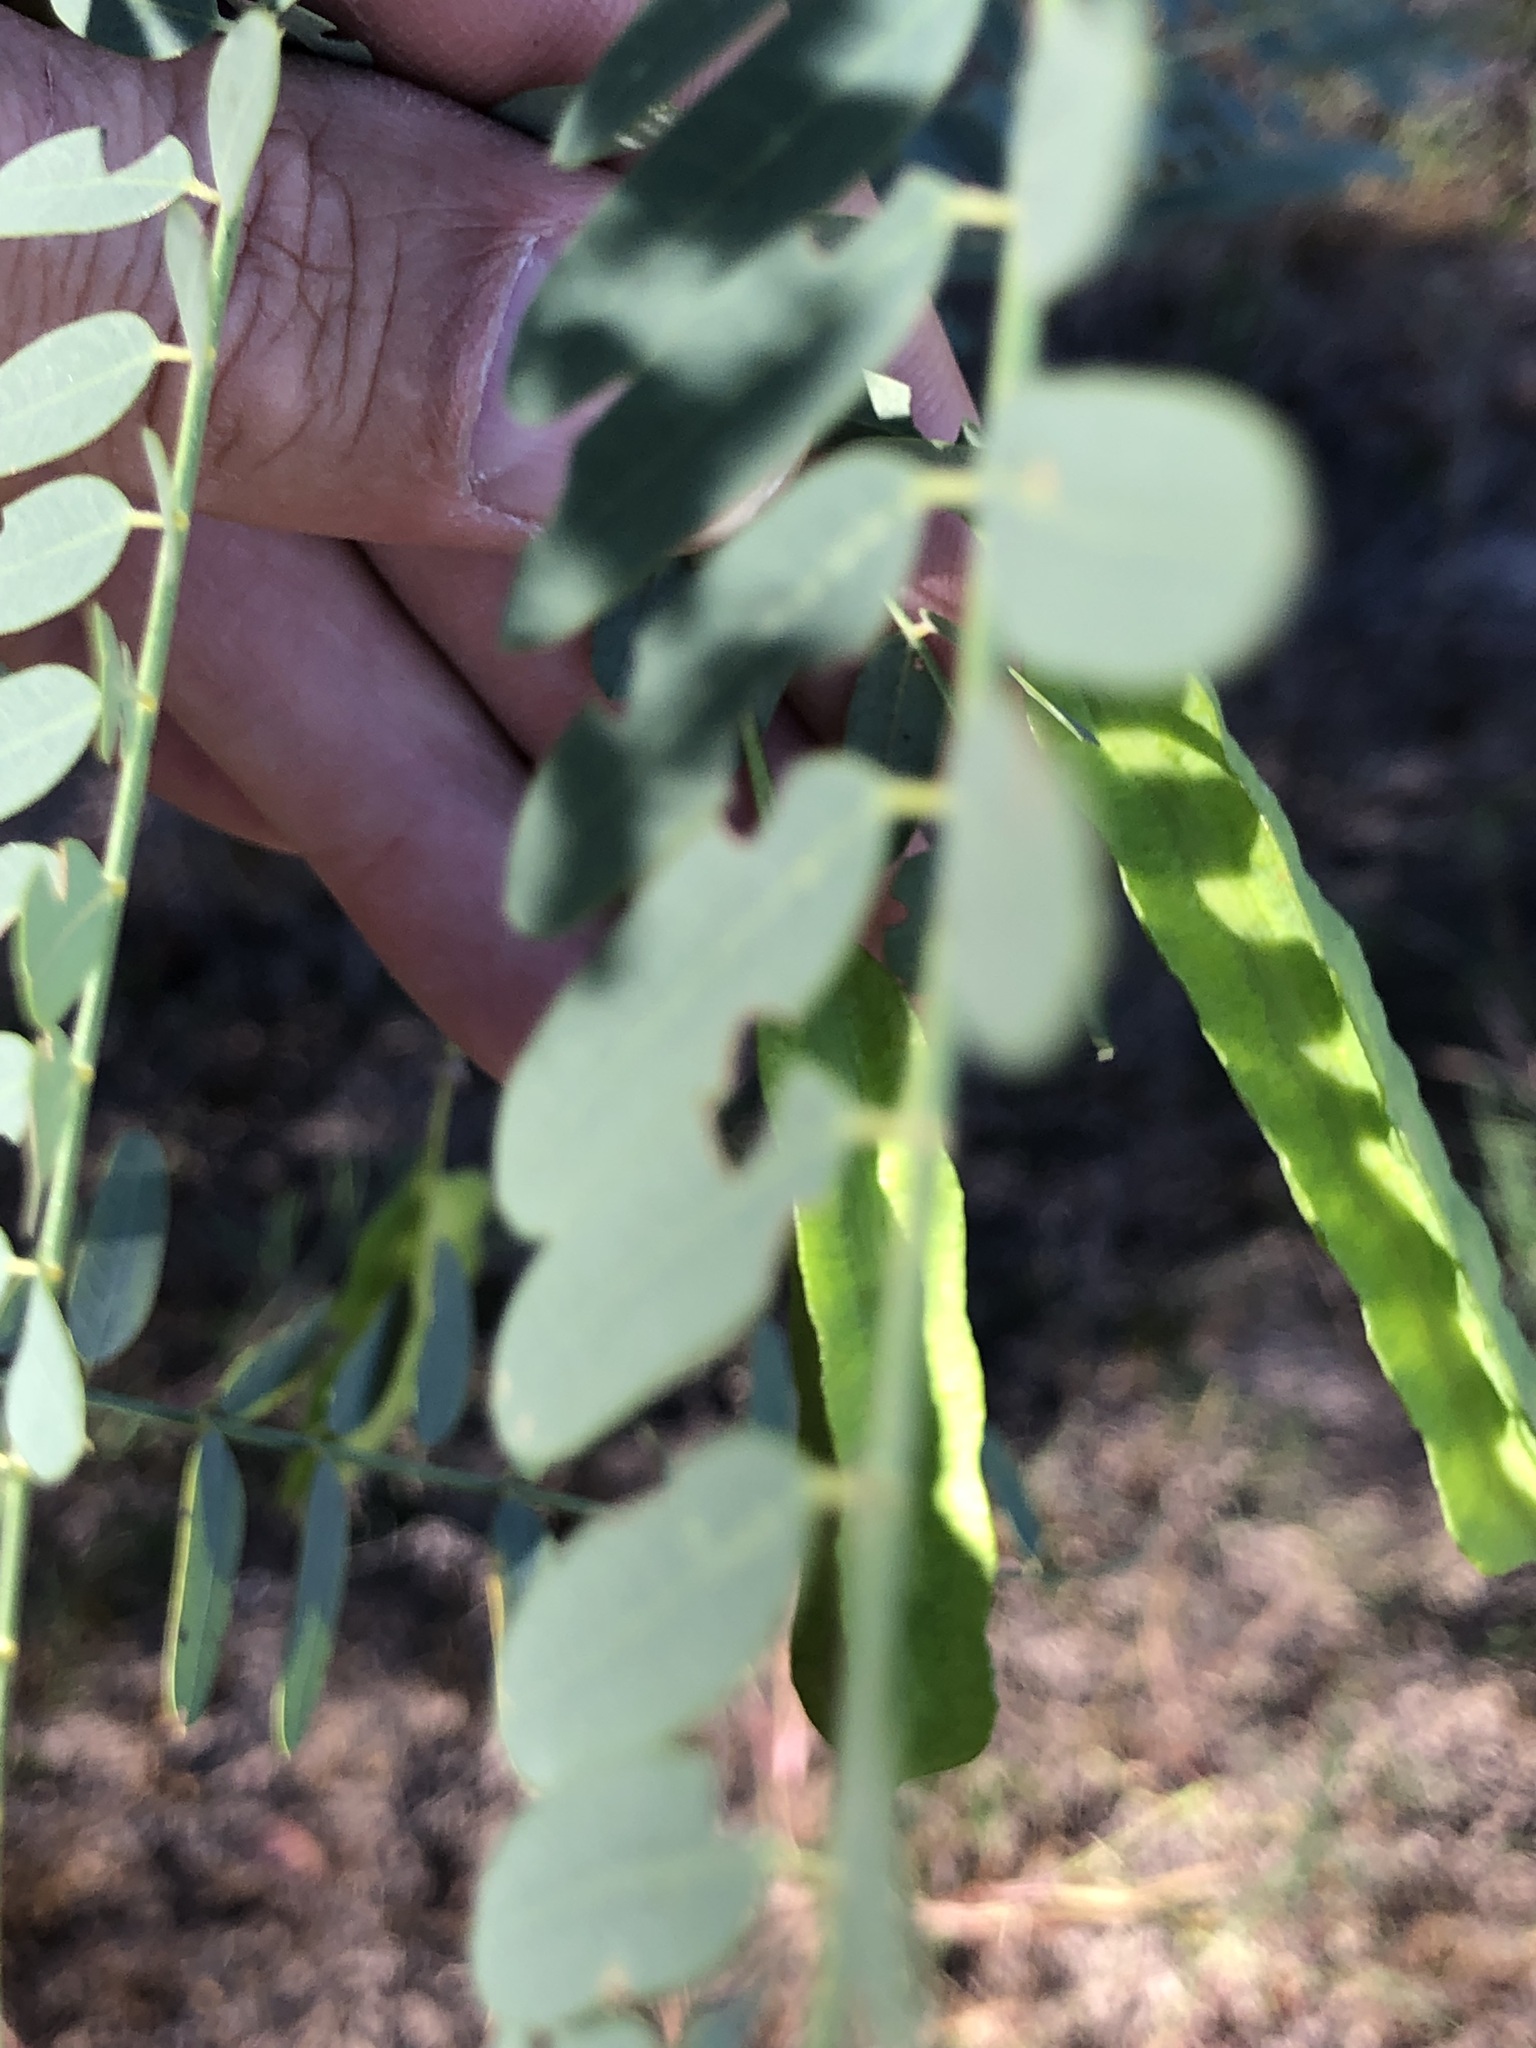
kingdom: Plantae
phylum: Tracheophyta
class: Magnoliopsida
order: Fabales
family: Fabaceae
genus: Sesbania
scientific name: Sesbania drummondii
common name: Poison-bean
